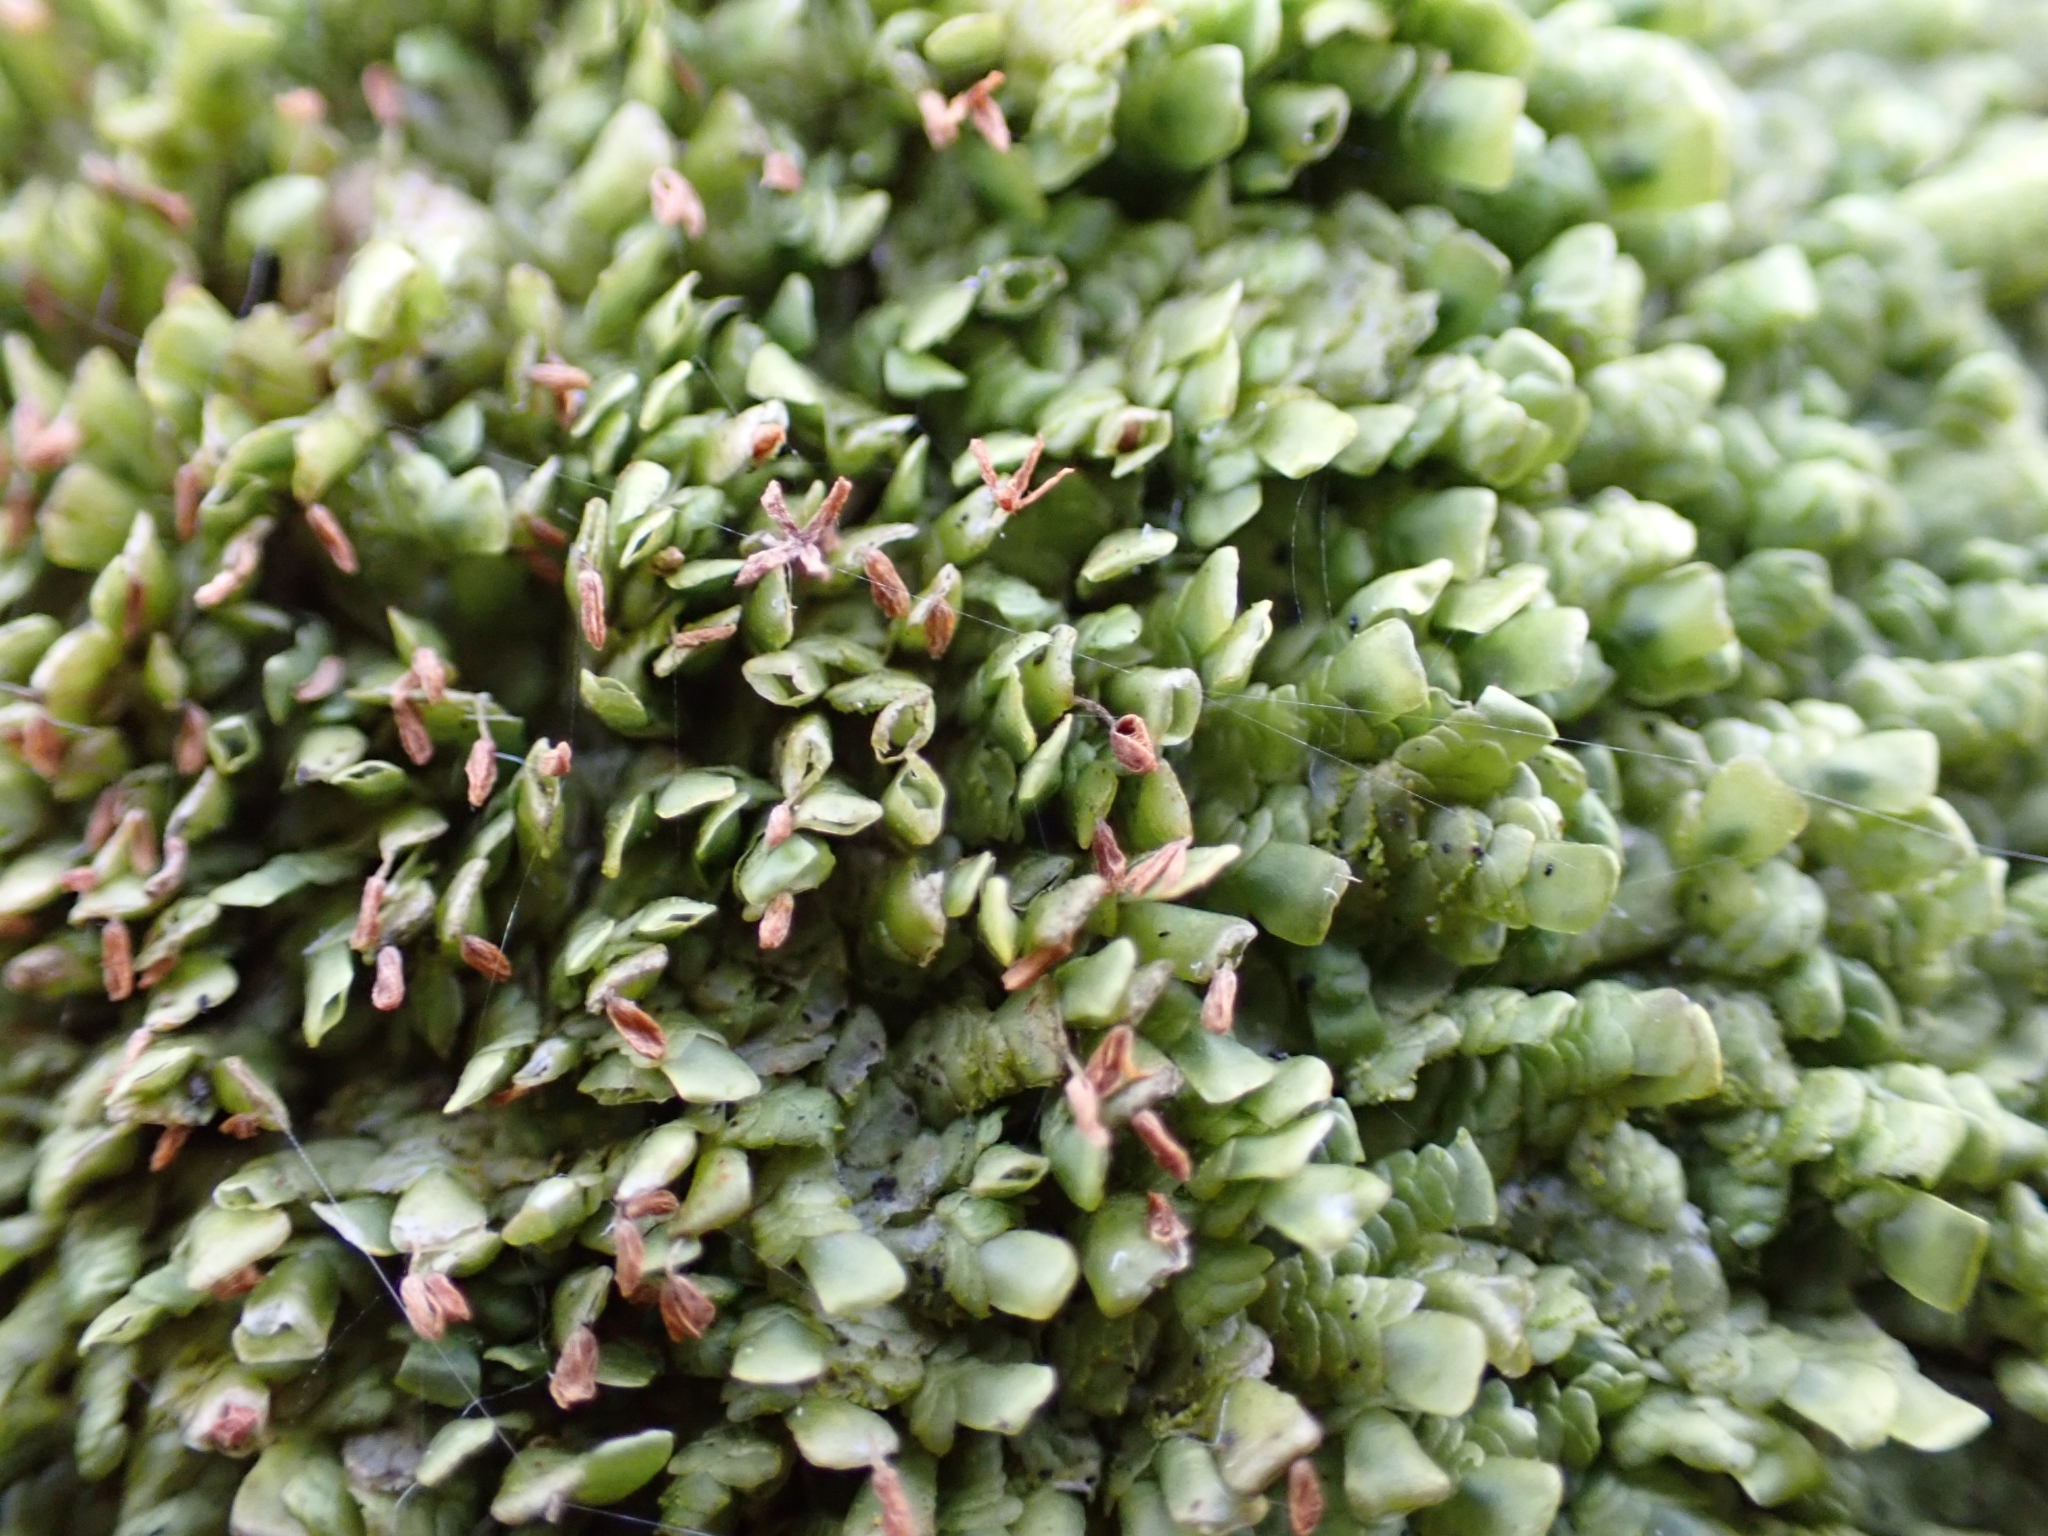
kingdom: Plantae
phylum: Marchantiophyta
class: Jungermanniopsida
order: Porellales
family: Radulaceae
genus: Radula
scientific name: Radula complanata
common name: Flat-leaved scalewort
